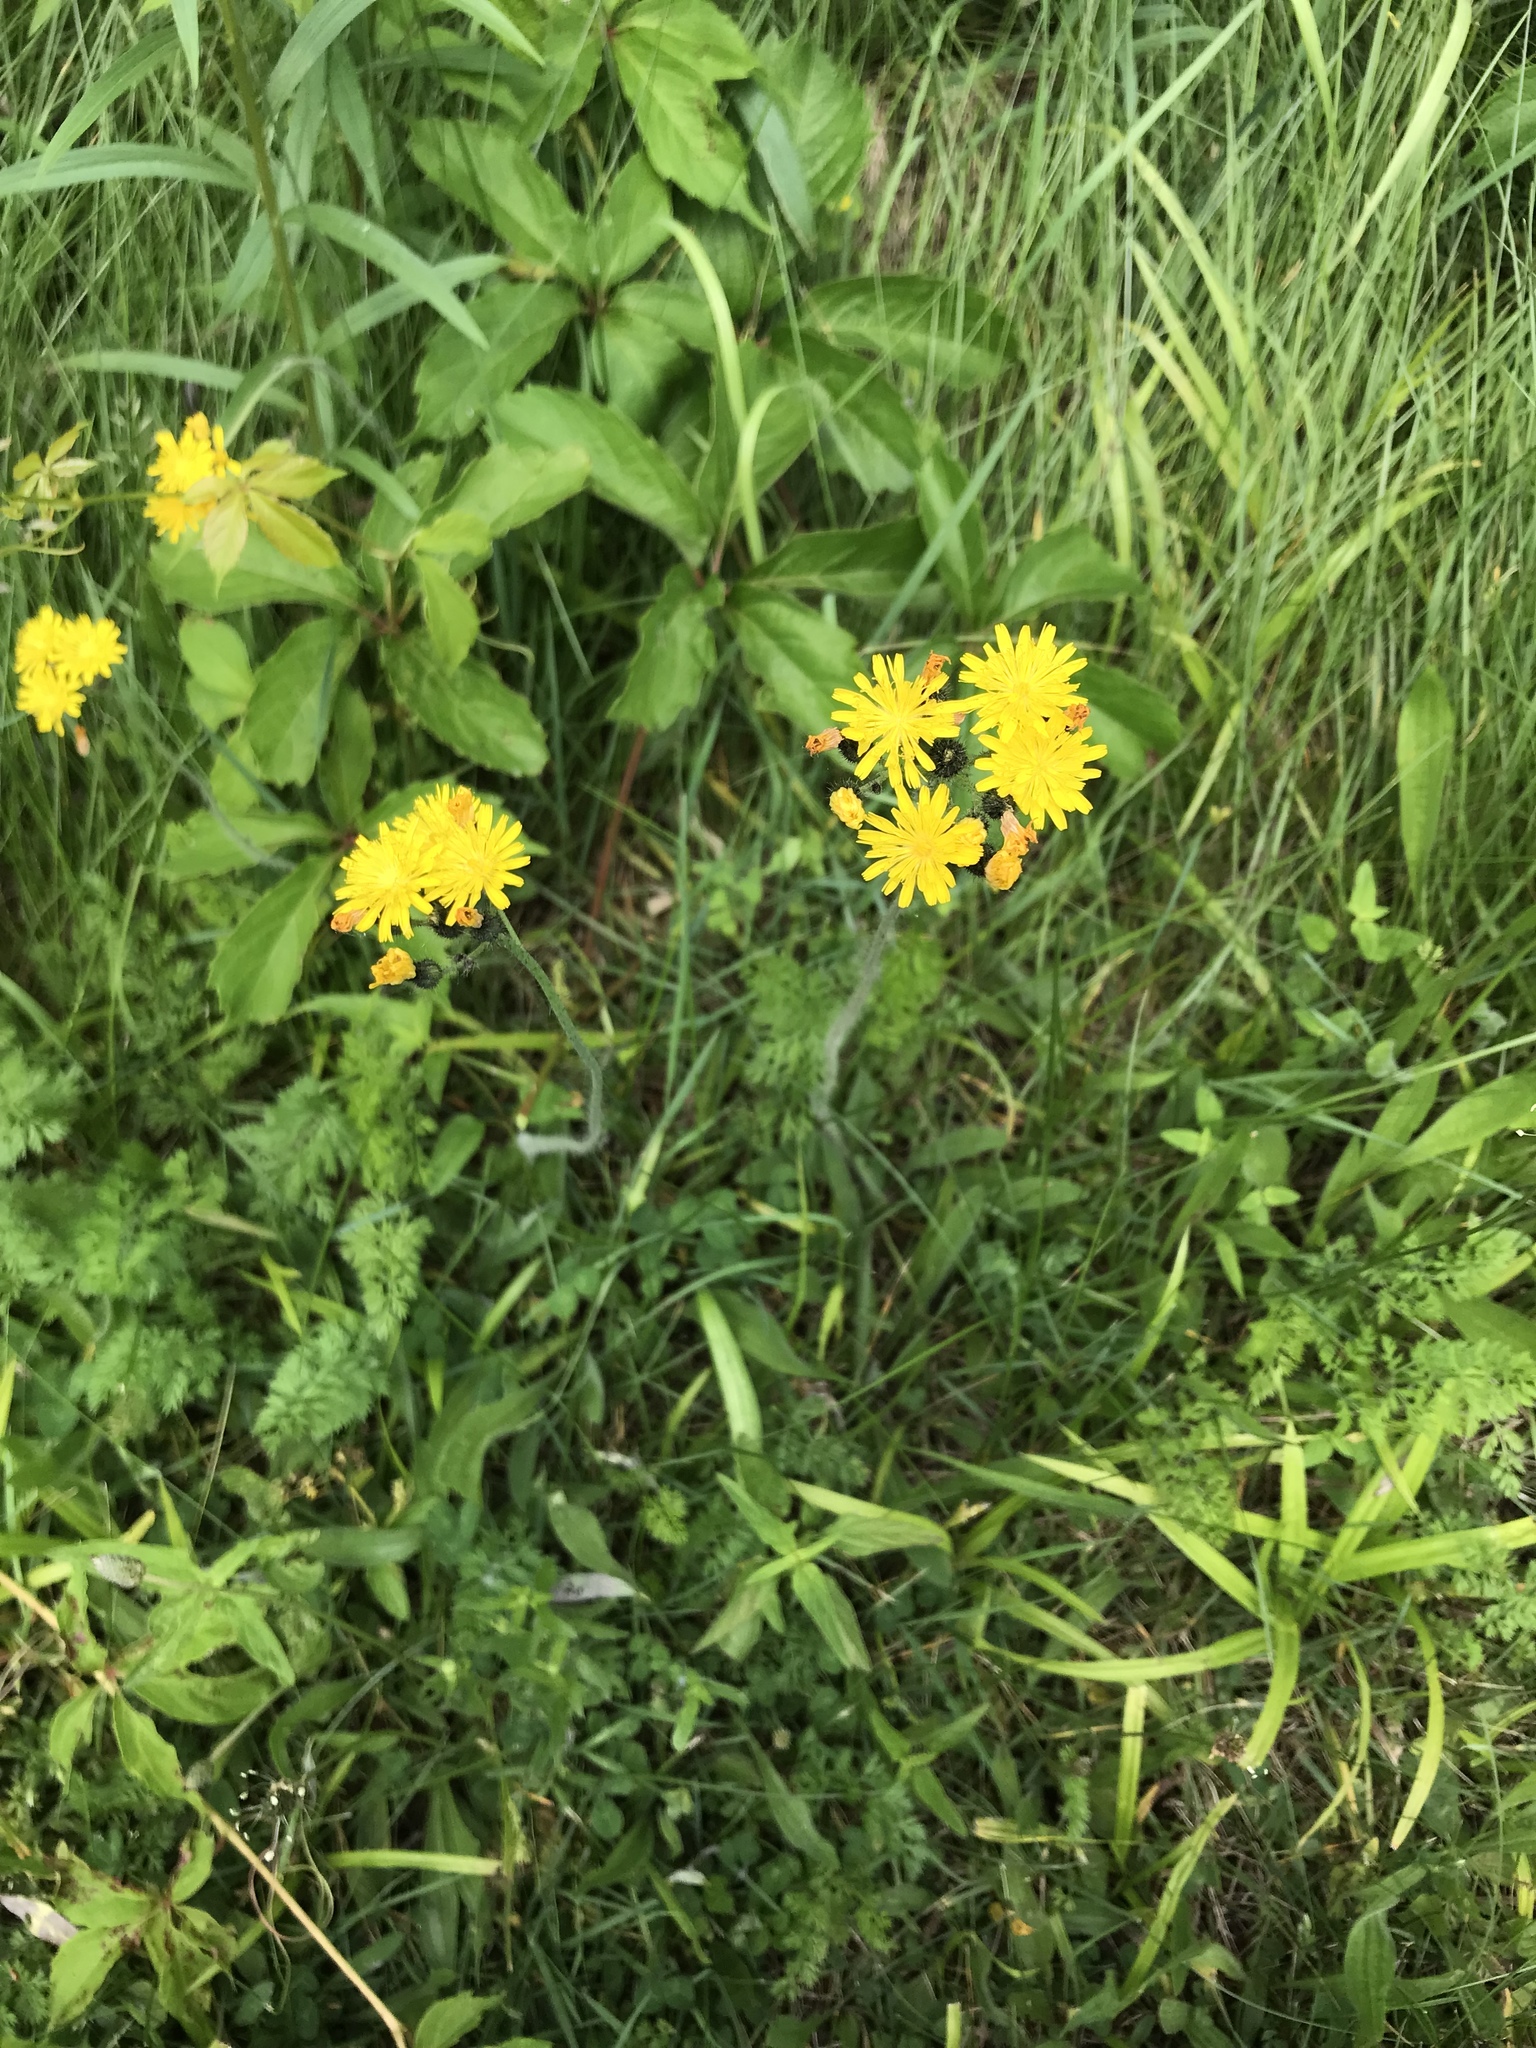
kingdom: Plantae
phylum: Tracheophyta
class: Magnoliopsida
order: Asterales
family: Asteraceae
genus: Pilosella
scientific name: Pilosella caespitosa
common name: Yellow fox-and-cubs
